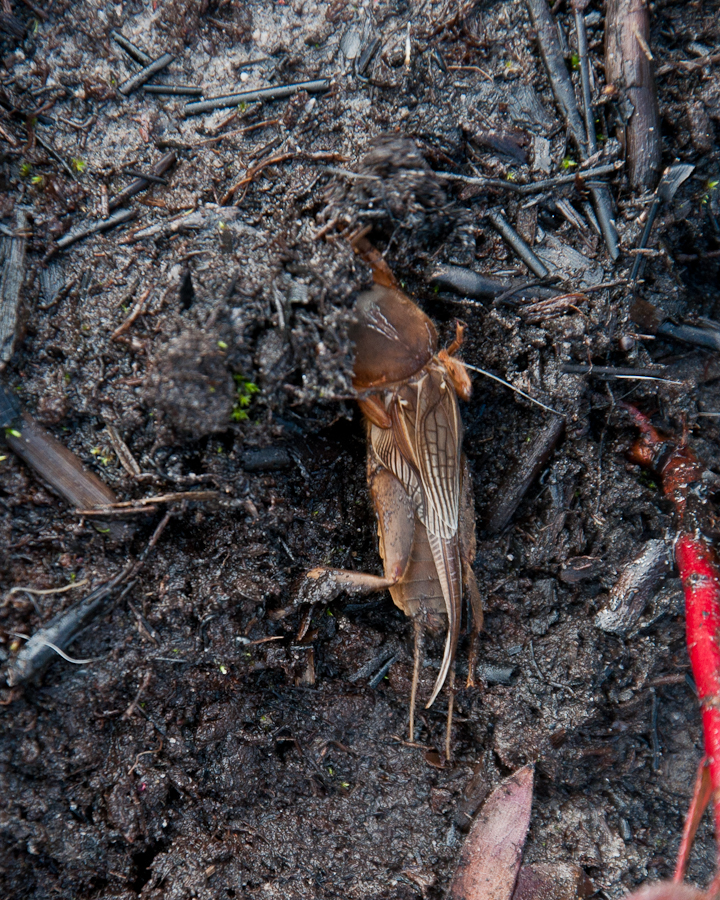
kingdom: Animalia
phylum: Arthropoda
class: Insecta
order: Orthoptera
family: Gryllotalpidae
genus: Gryllotalpa
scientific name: Gryllotalpa africana
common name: African mole cricket
